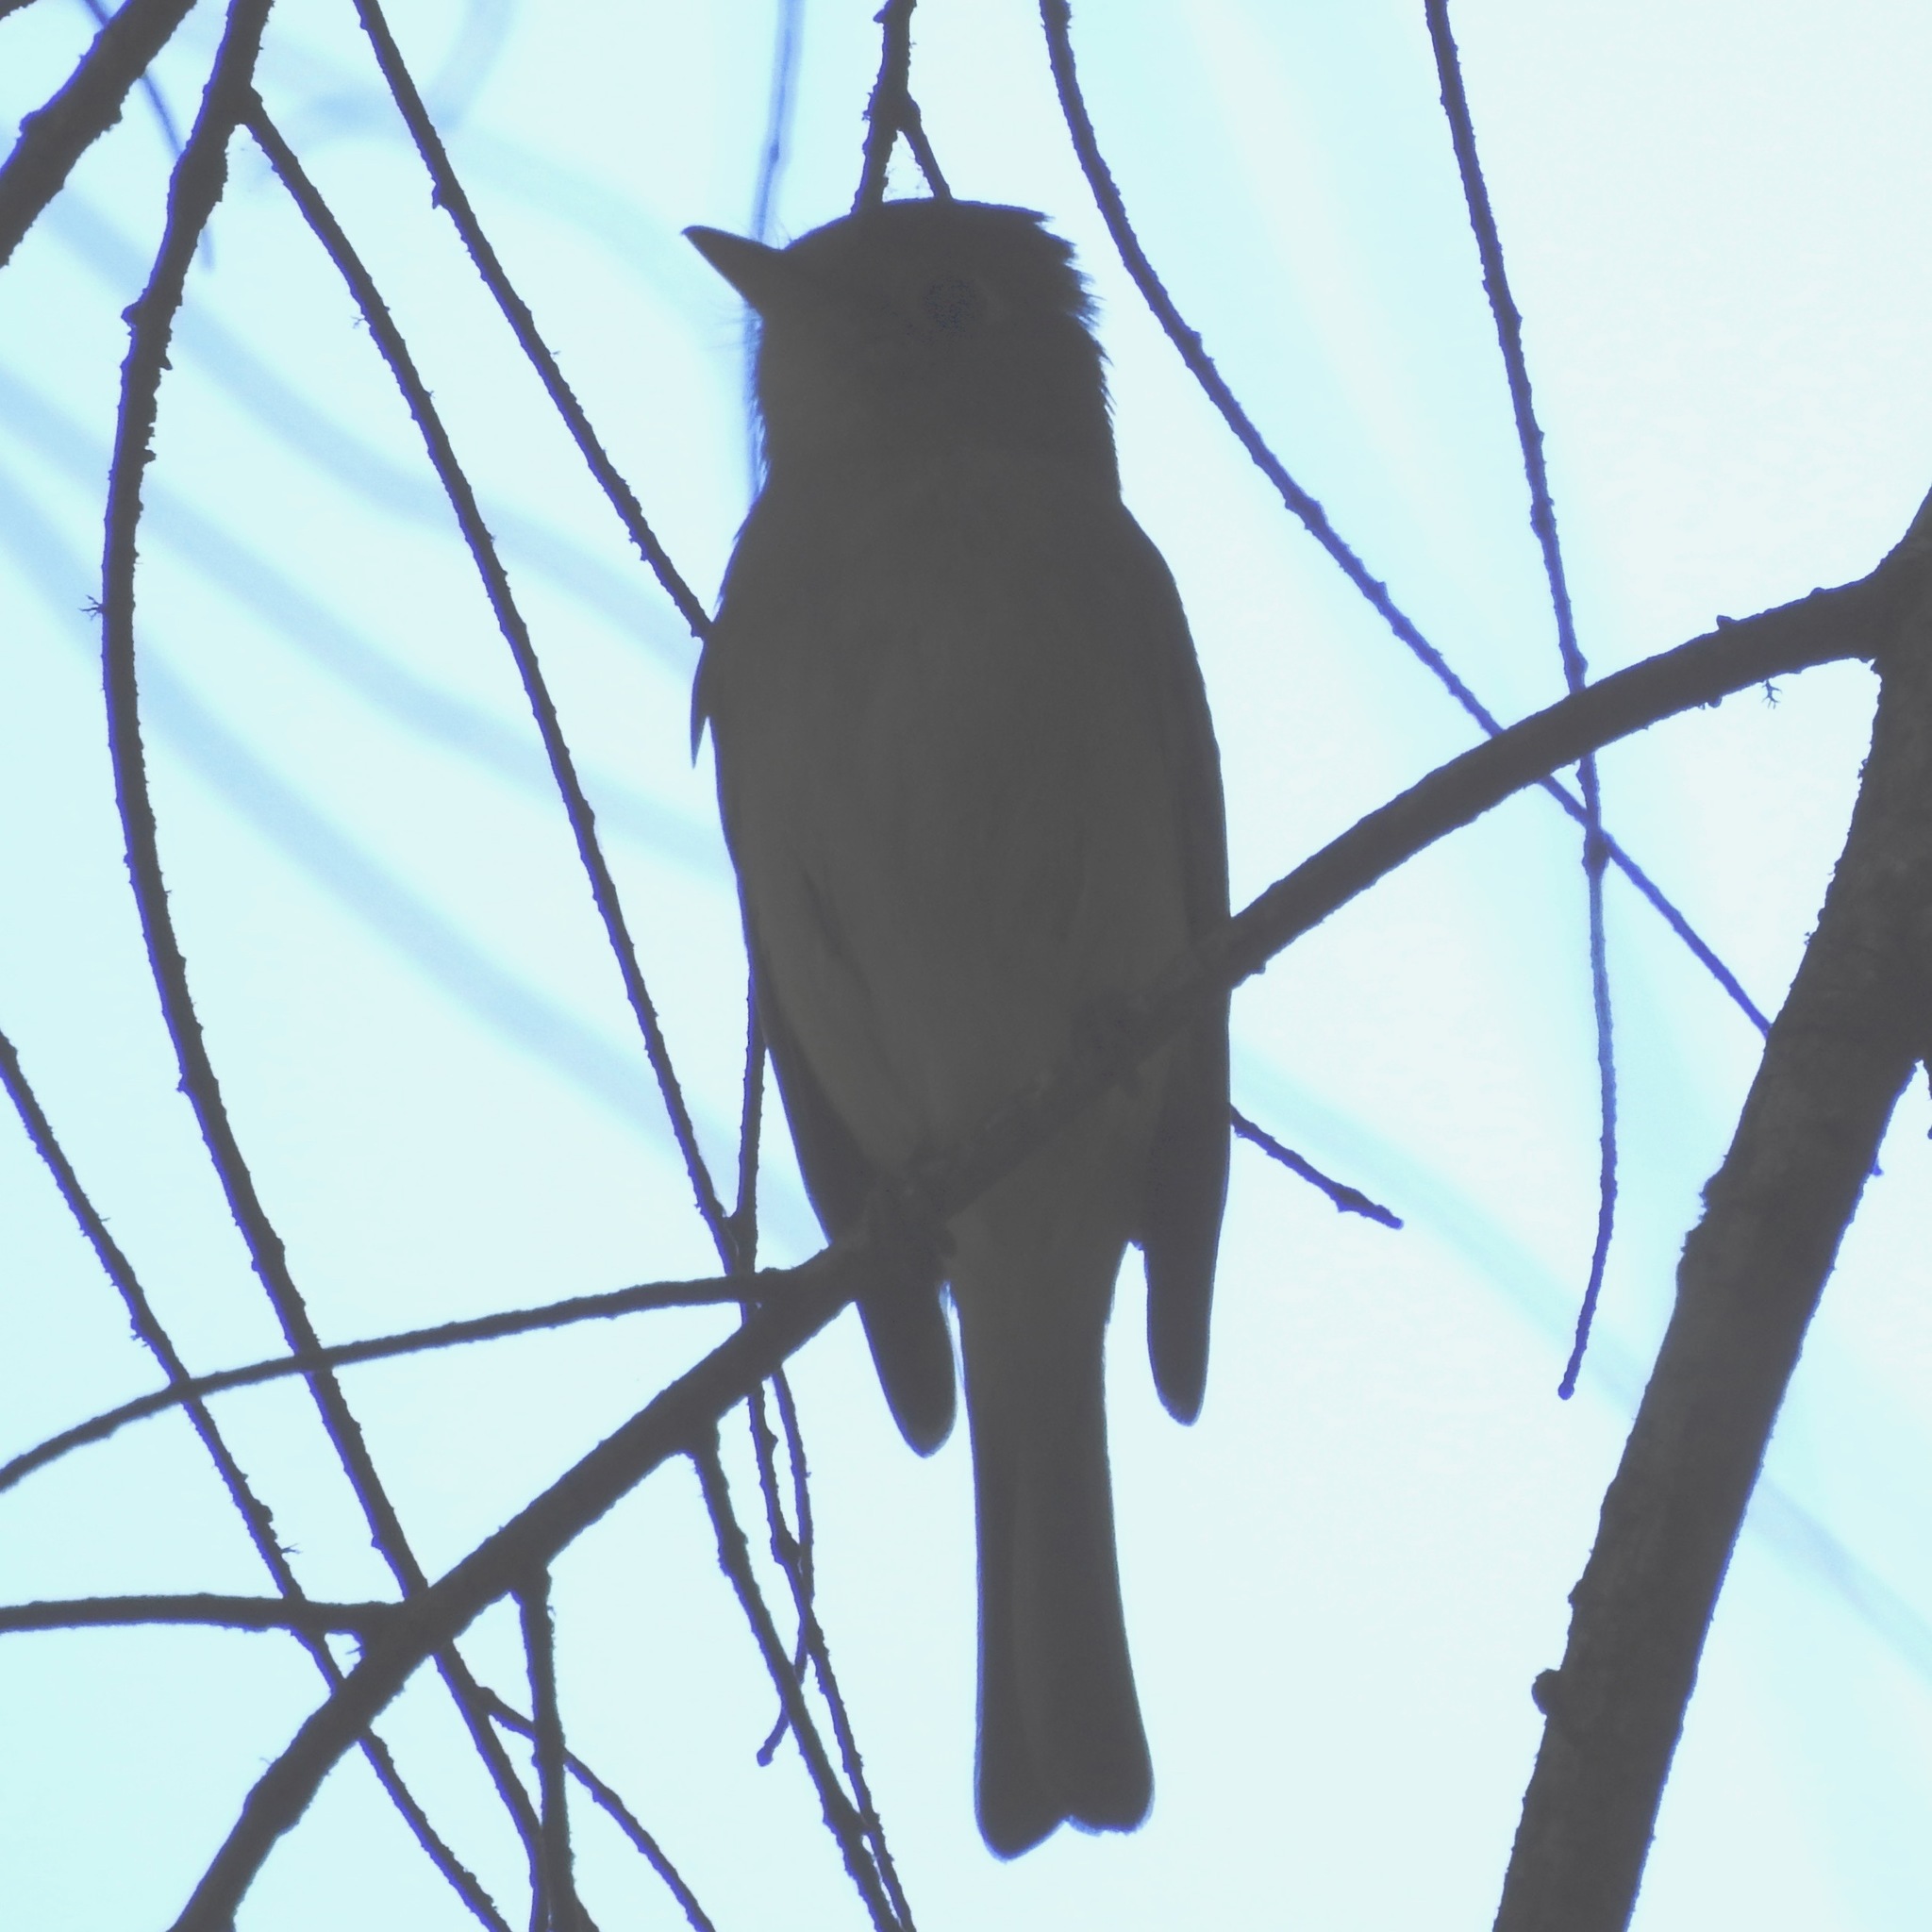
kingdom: Animalia
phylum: Chordata
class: Aves
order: Passeriformes
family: Tyrannidae
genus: Empidonax
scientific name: Empidonax difficilis
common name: Pacific-slope flycatcher
